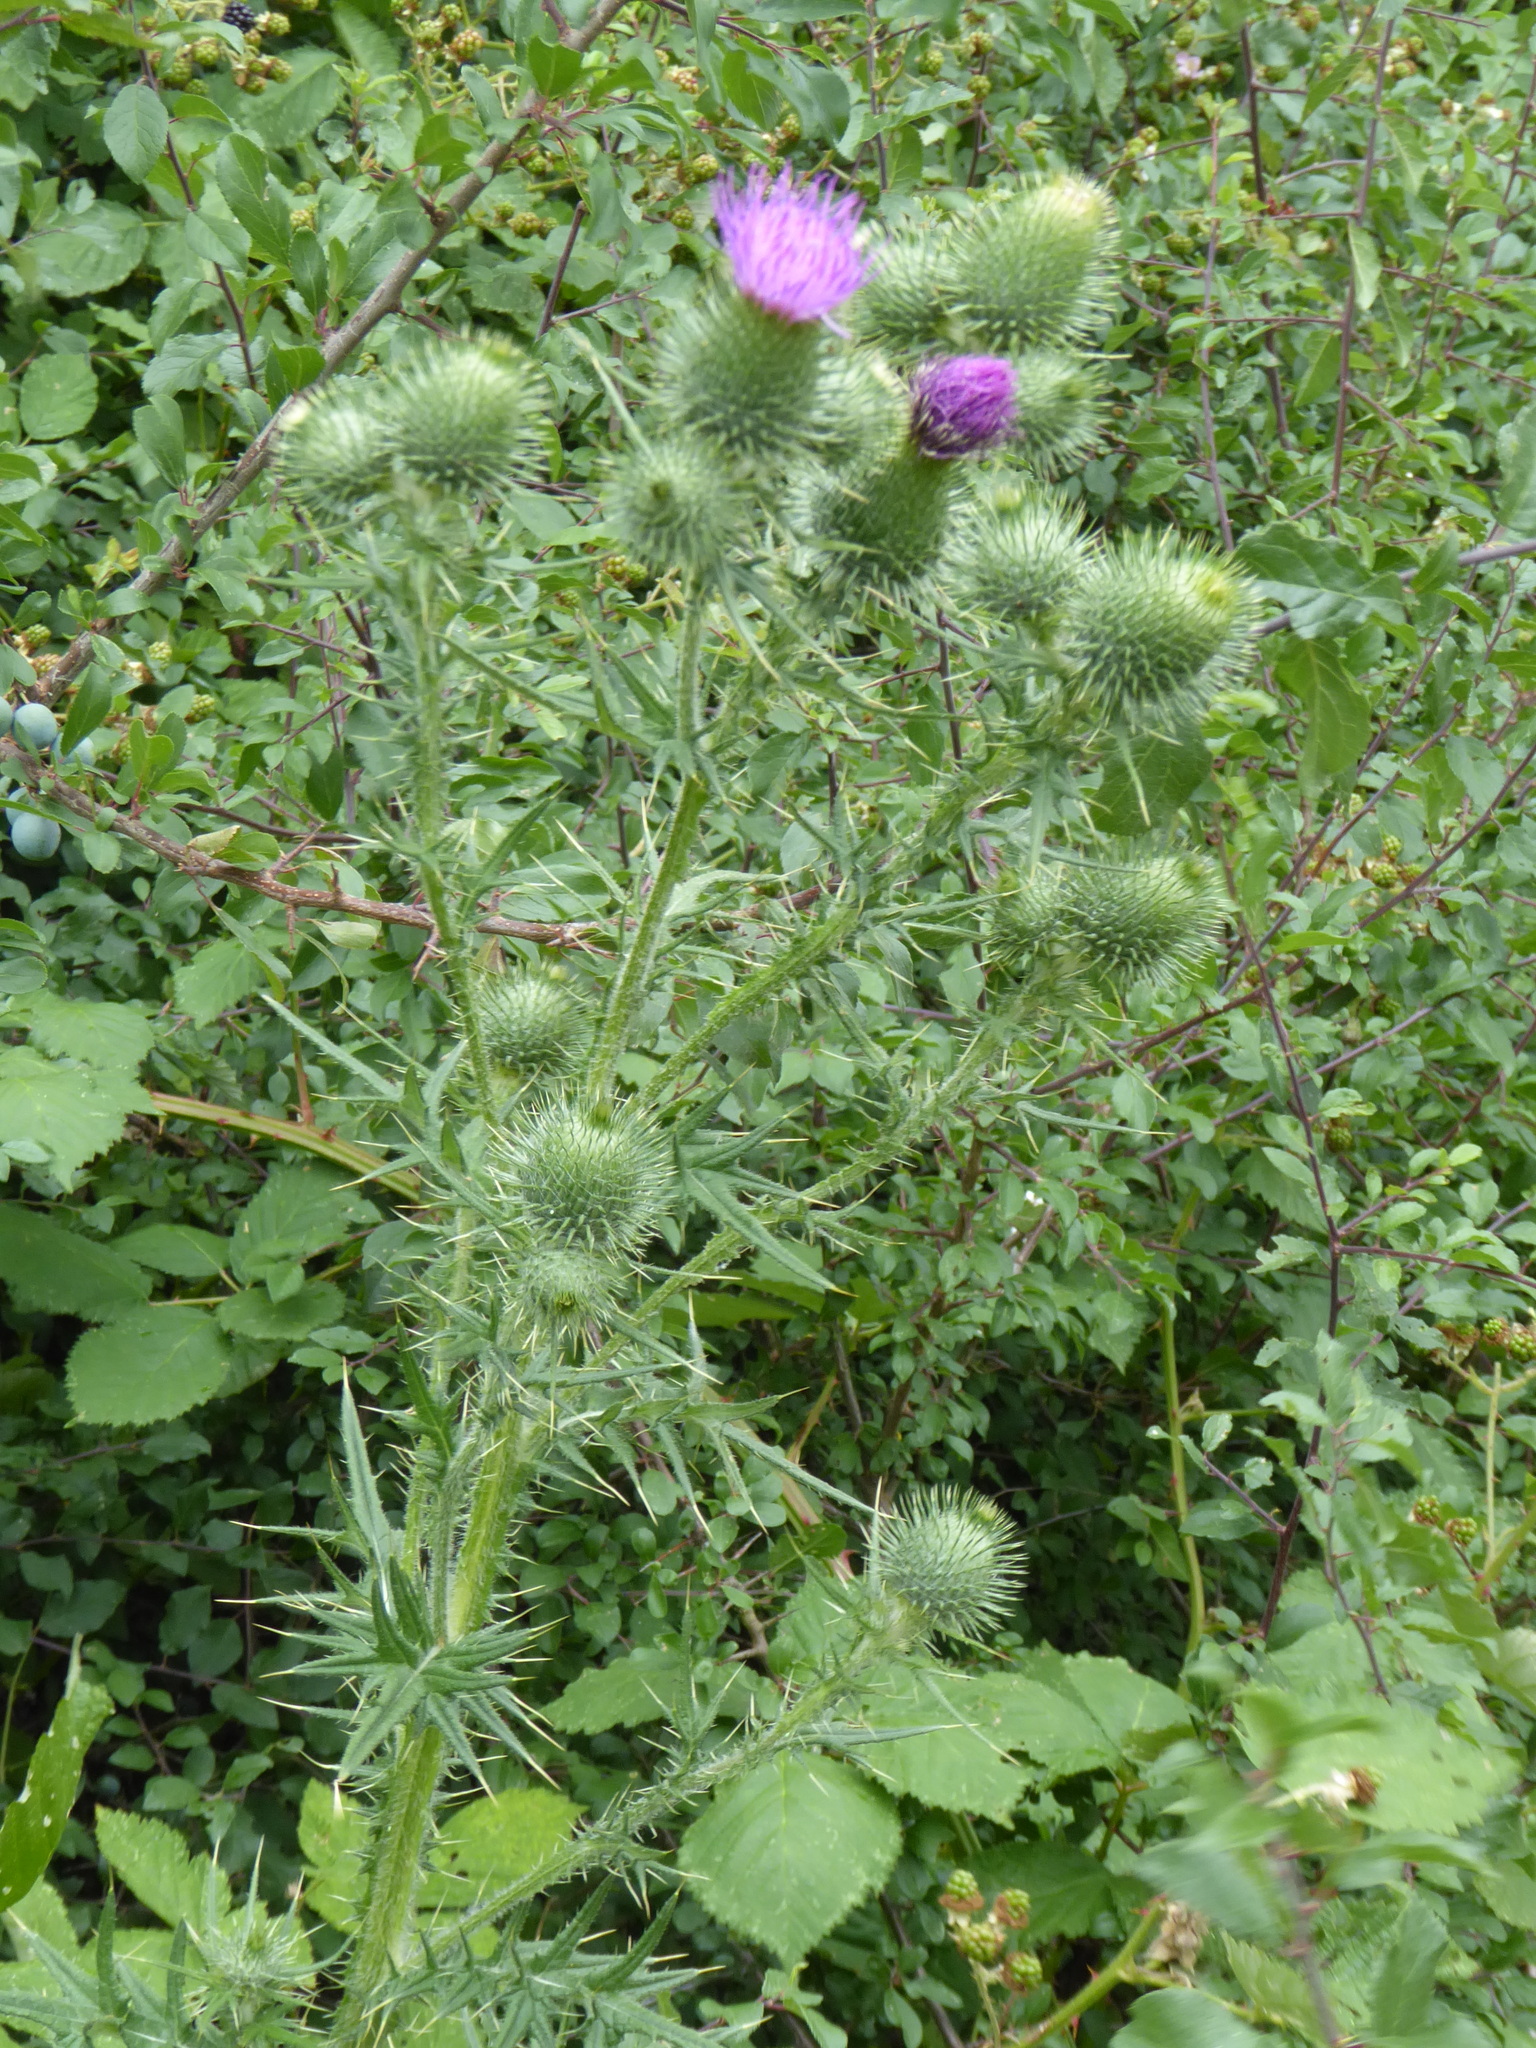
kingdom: Plantae
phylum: Tracheophyta
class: Magnoliopsida
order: Asterales
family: Asteraceae
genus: Cirsium
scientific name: Cirsium vulgare
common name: Bull thistle
